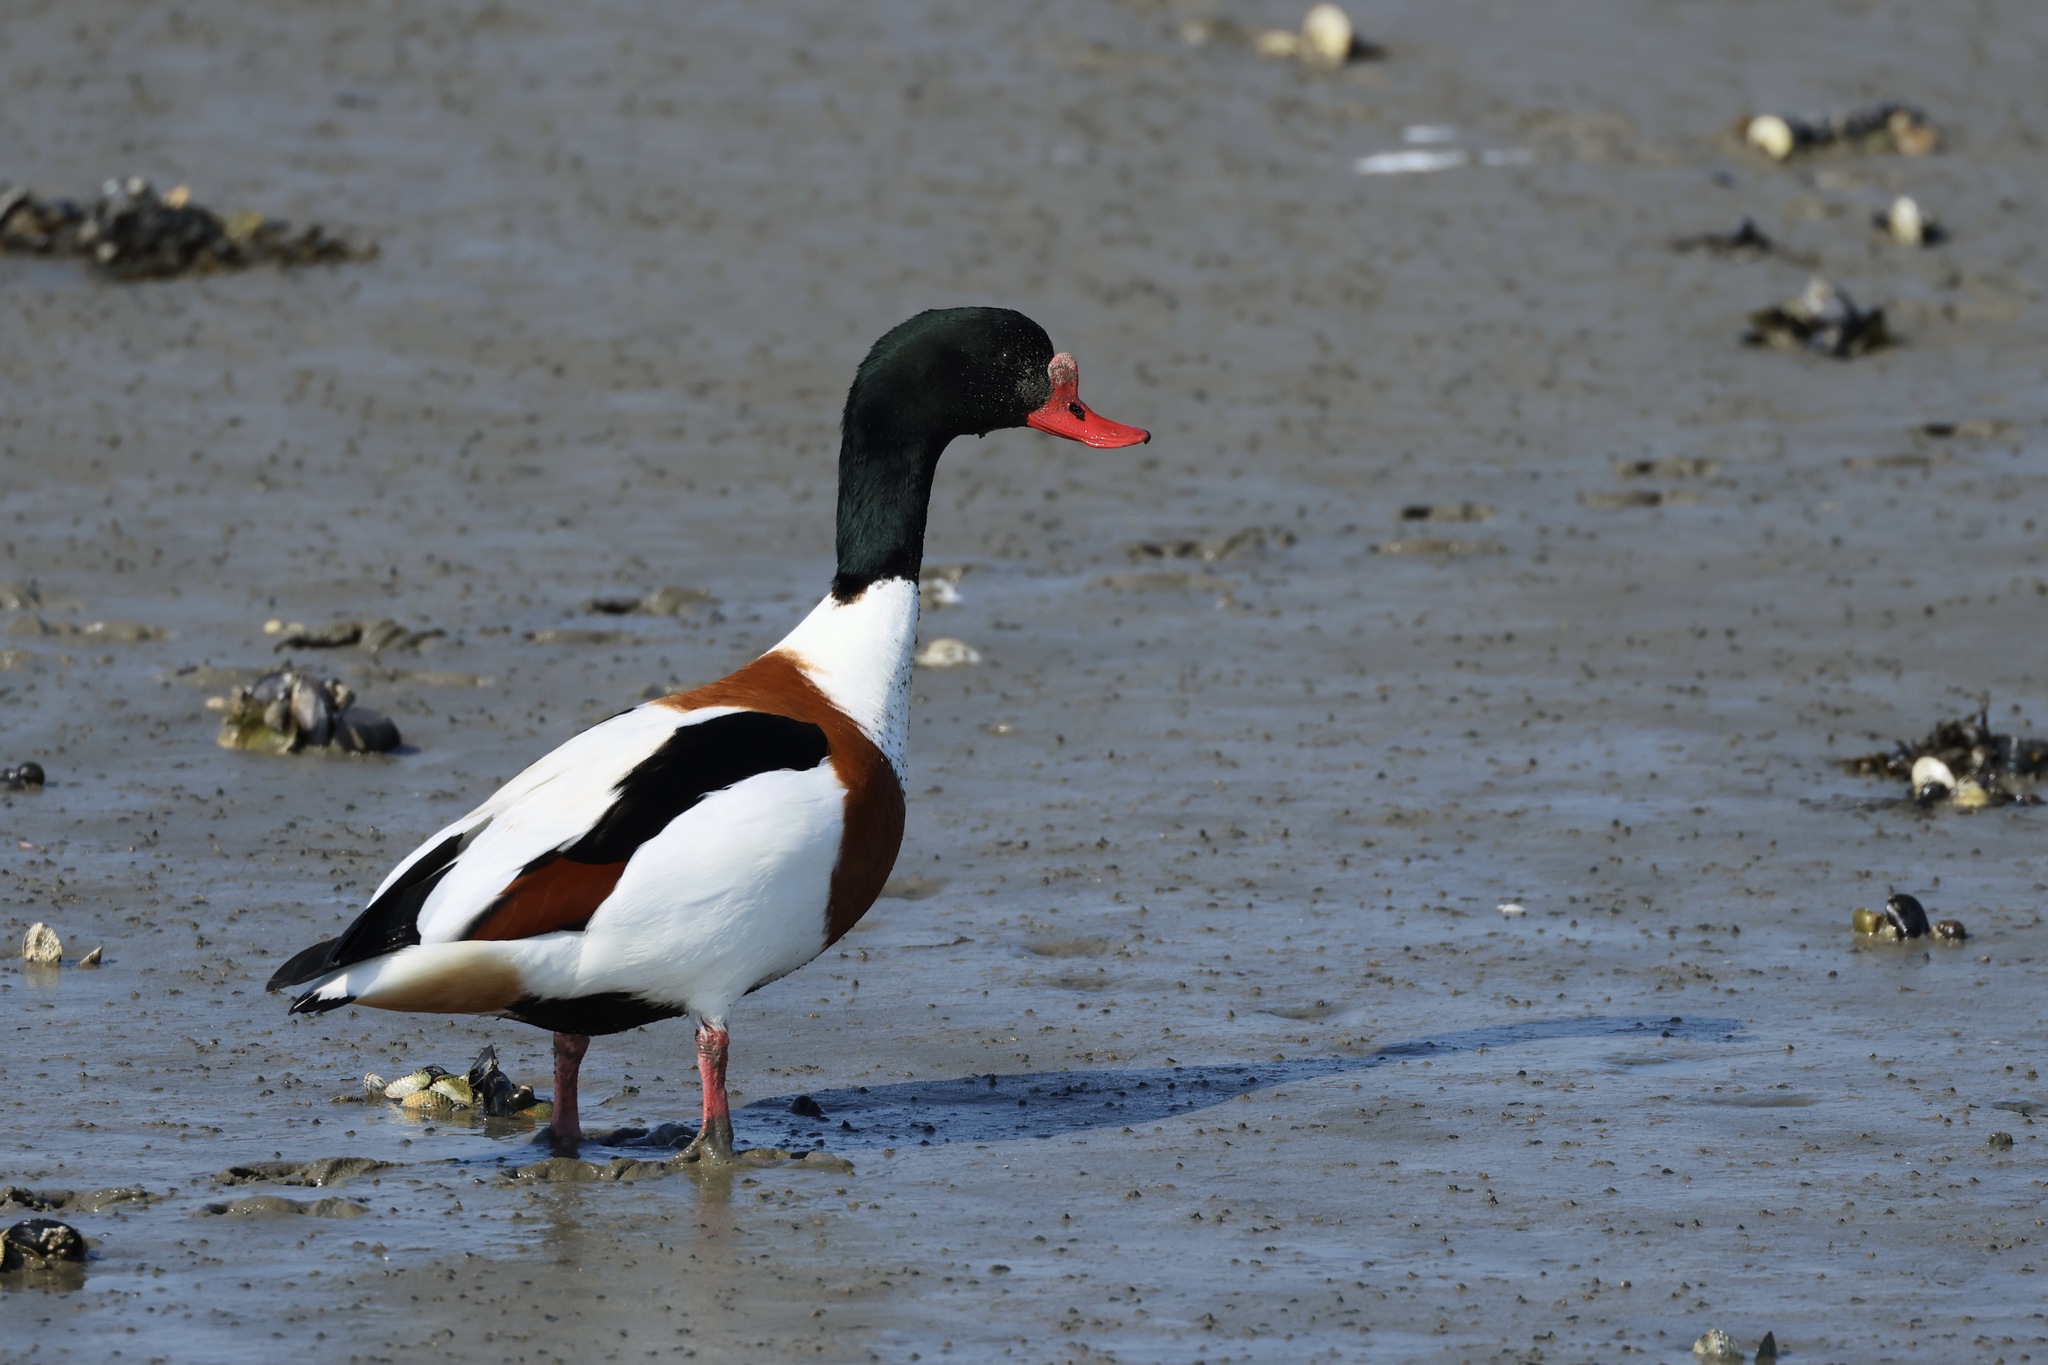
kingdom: Animalia
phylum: Chordata
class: Aves
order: Anseriformes
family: Anatidae
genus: Tadorna
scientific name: Tadorna tadorna
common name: Common shelduck
